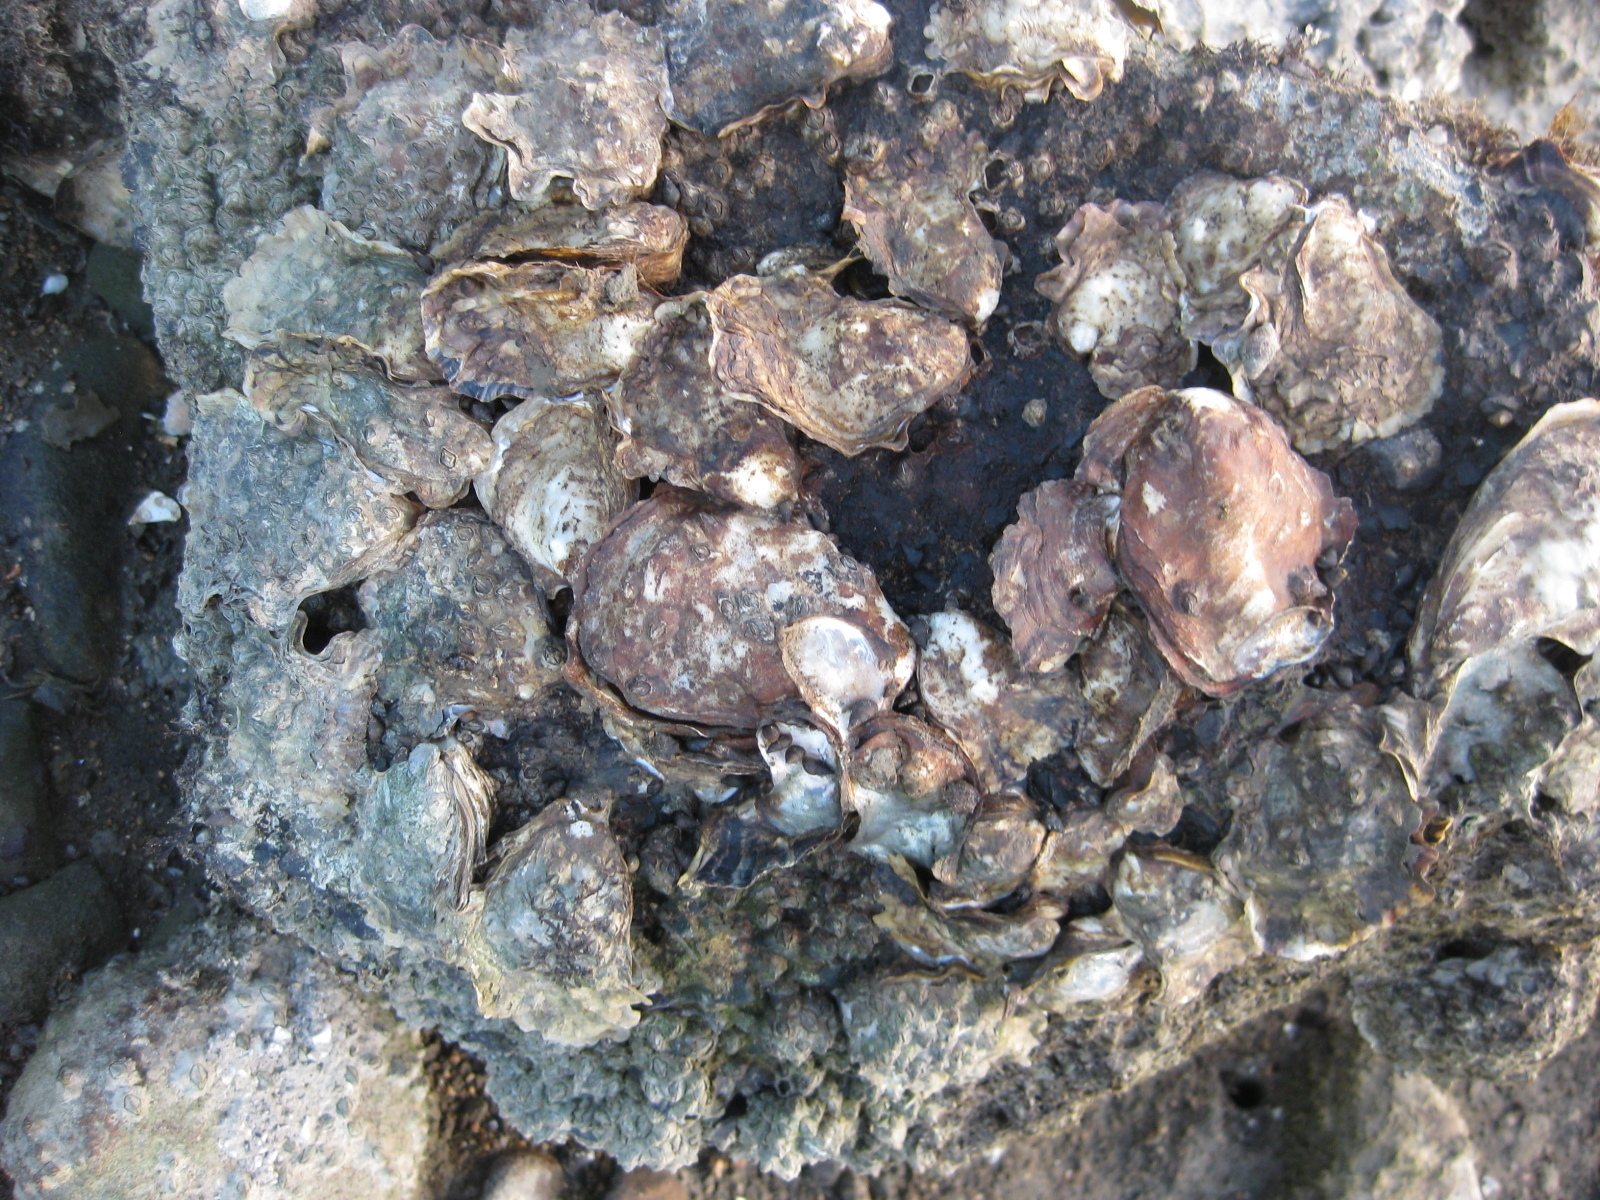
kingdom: Animalia
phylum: Mollusca
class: Bivalvia
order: Ostreida
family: Ostreidae
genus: Magallana
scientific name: Magallana gigas
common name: Pacific oyster
